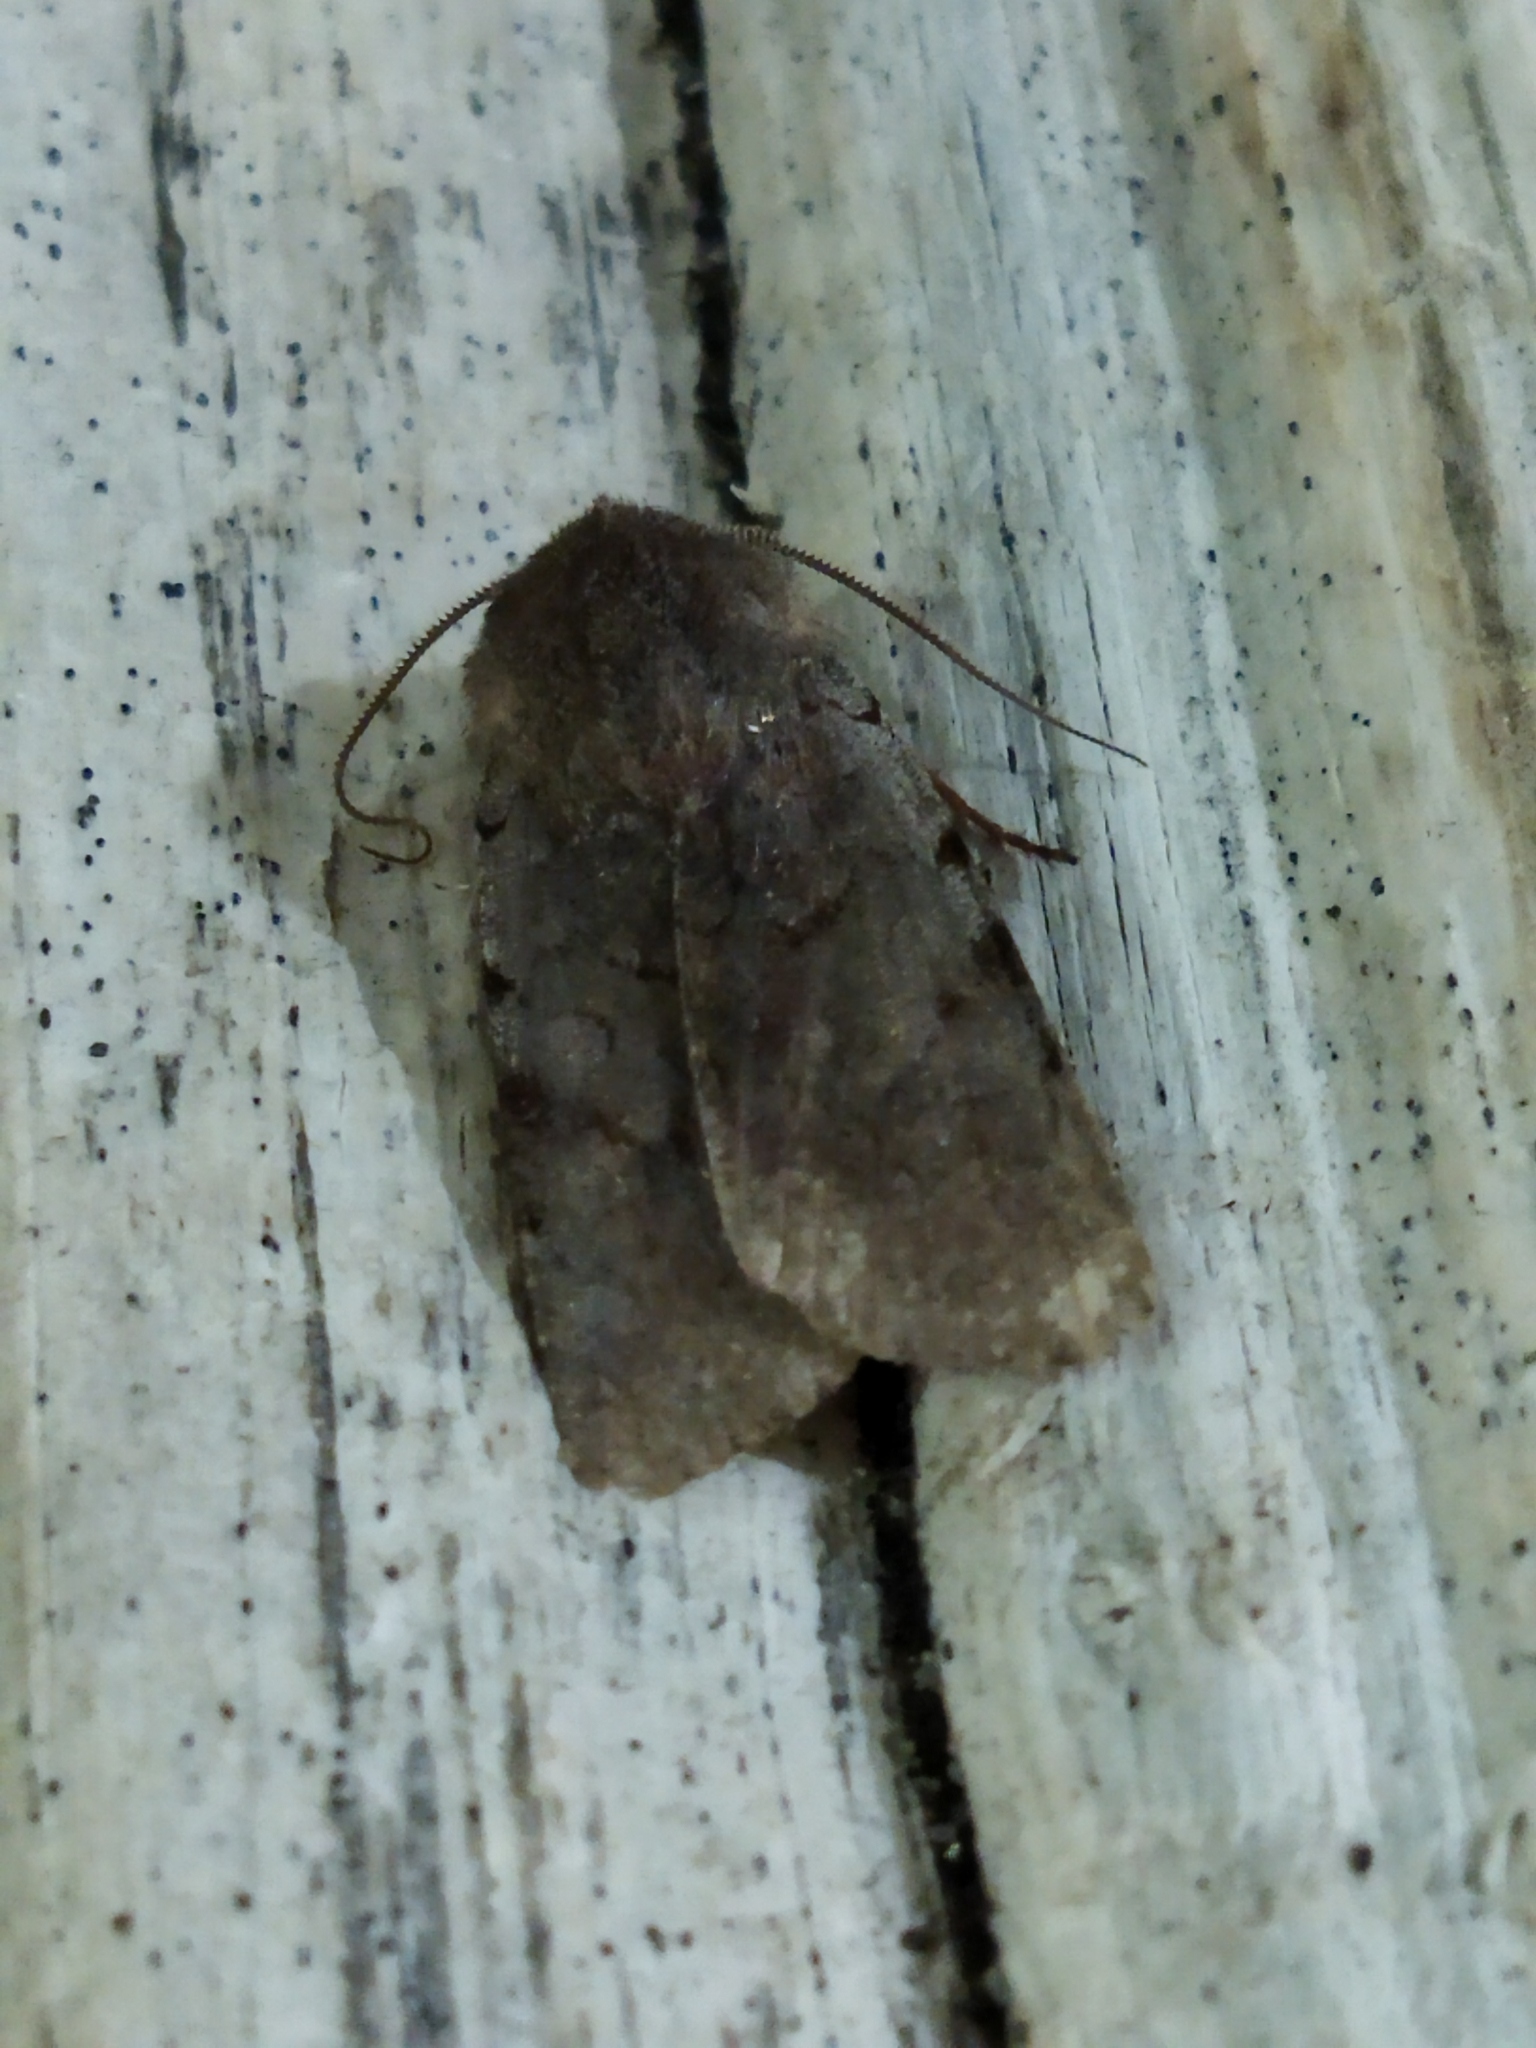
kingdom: Animalia
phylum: Arthropoda
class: Insecta
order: Lepidoptera
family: Noctuidae
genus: Cerastis
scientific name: Cerastis rubricosa
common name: Red chestnut
